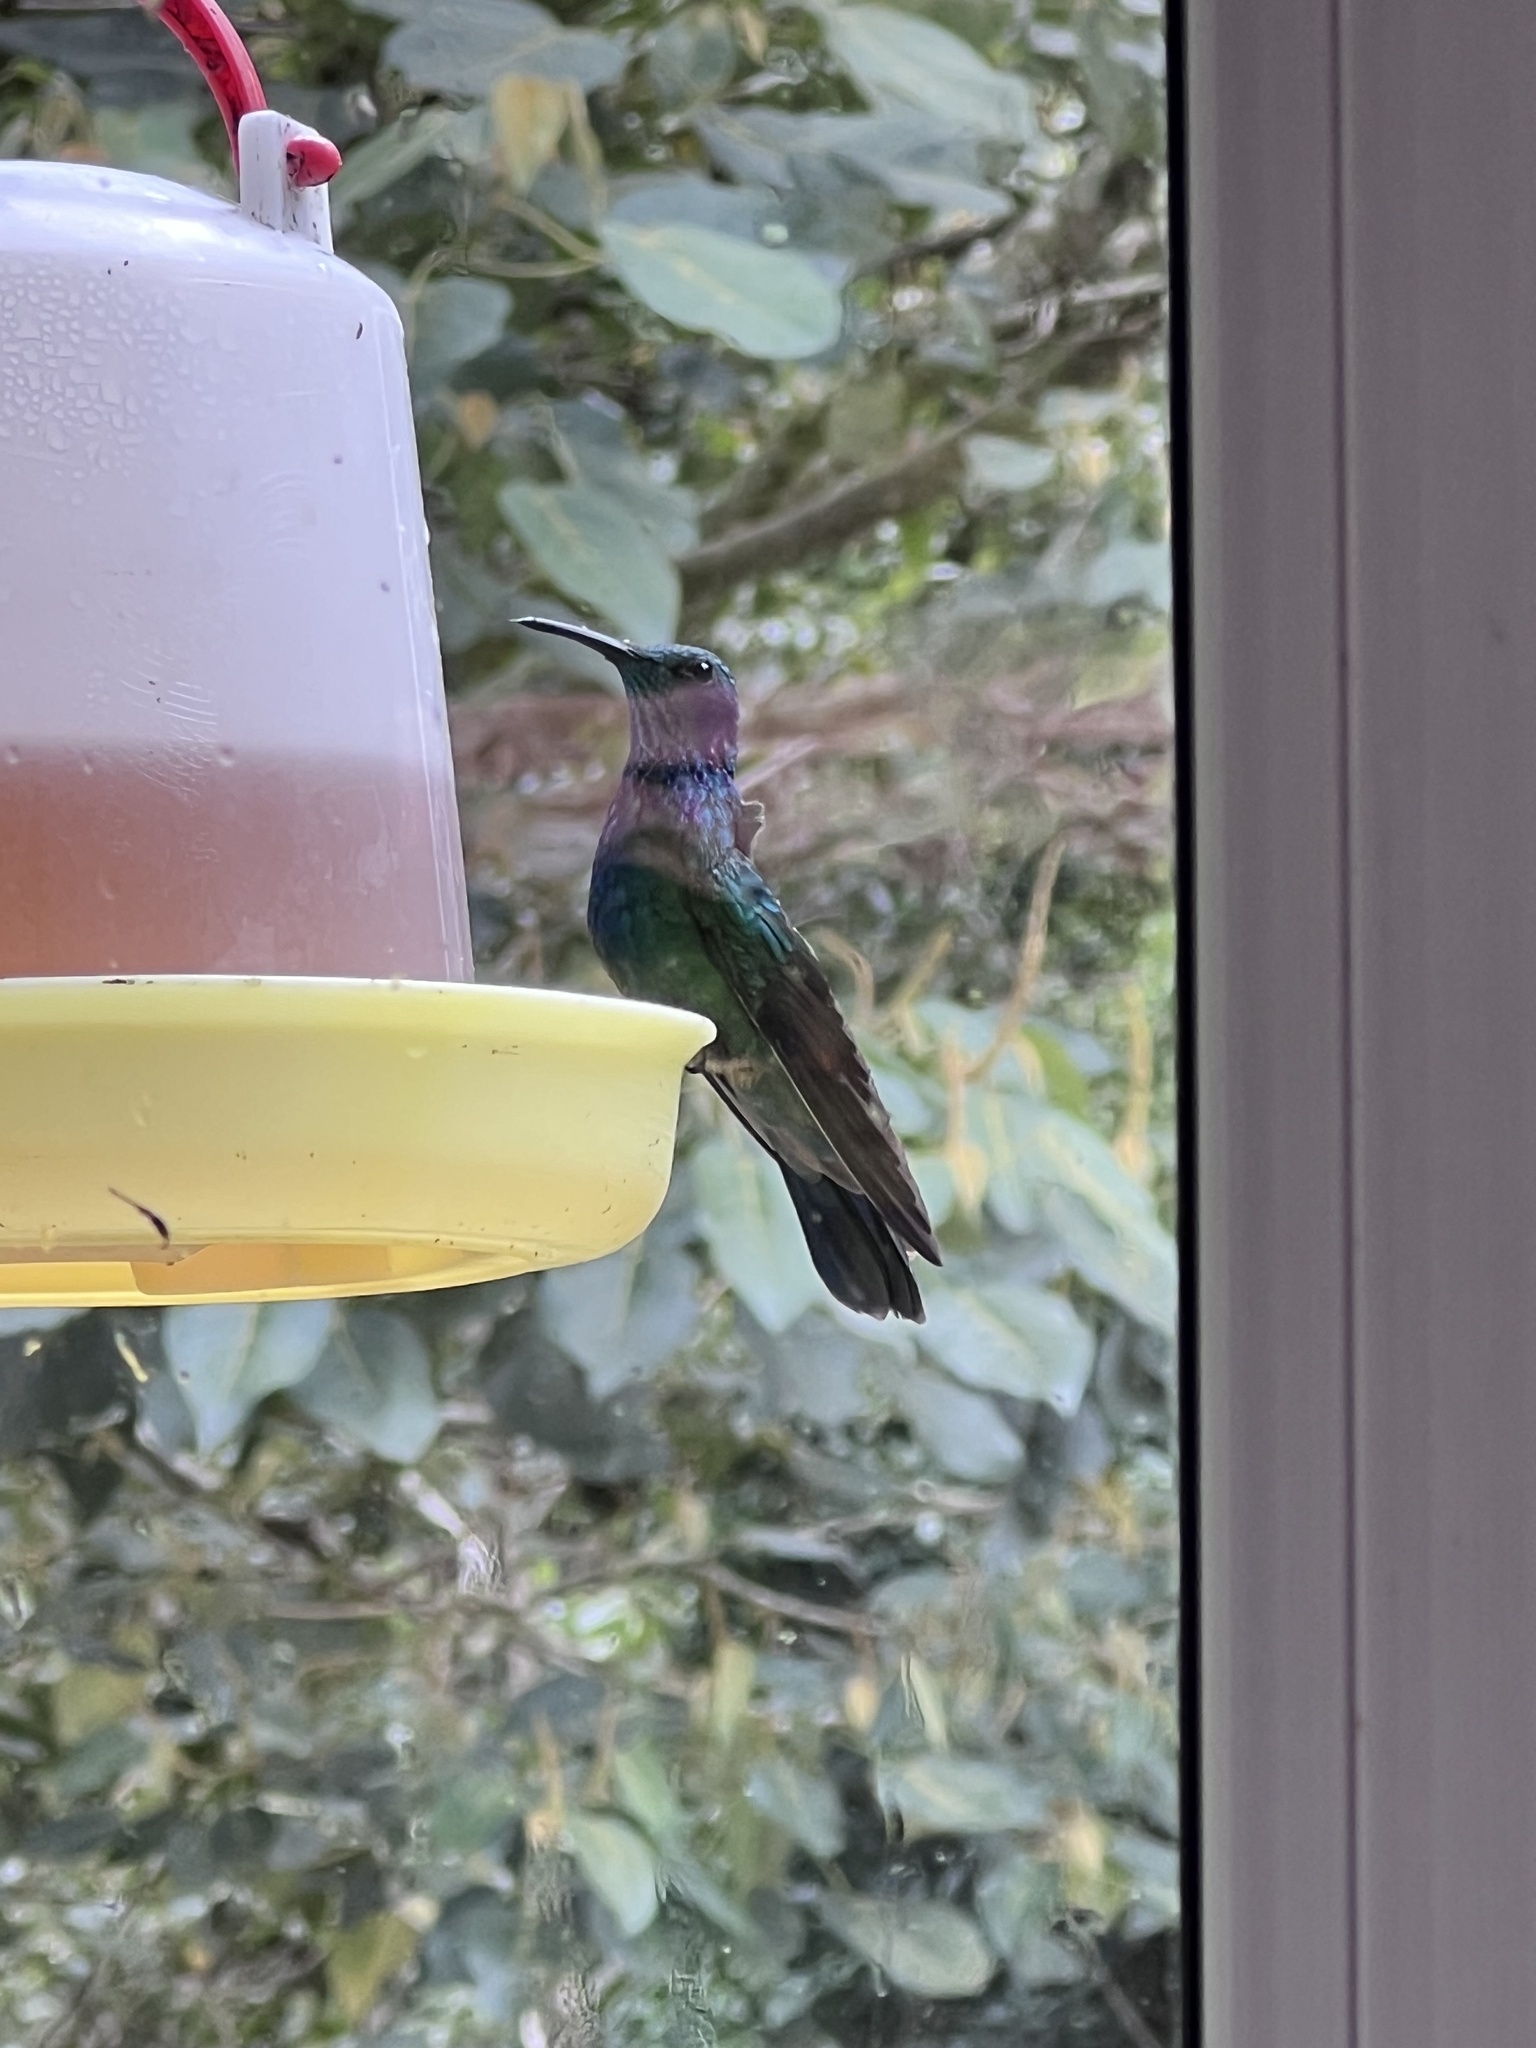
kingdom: Animalia
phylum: Chordata
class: Aves
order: Apodiformes
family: Trochilidae
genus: Colibri
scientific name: Colibri cyanotus
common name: Lesser violetear
